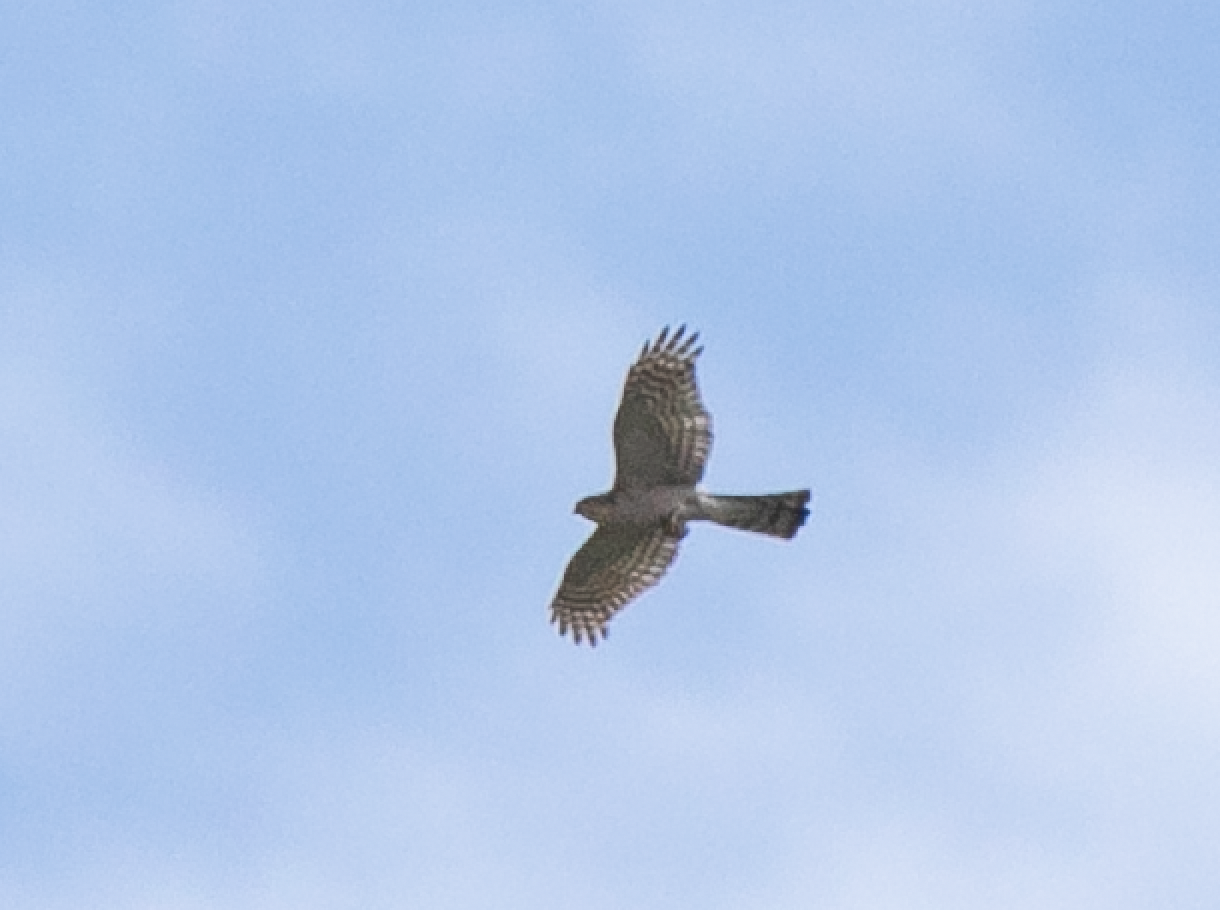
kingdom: Animalia
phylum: Chordata
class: Aves
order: Accipitriformes
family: Accipitridae
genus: Accipiter
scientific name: Accipiter nisus
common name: Eurasian sparrowhawk
